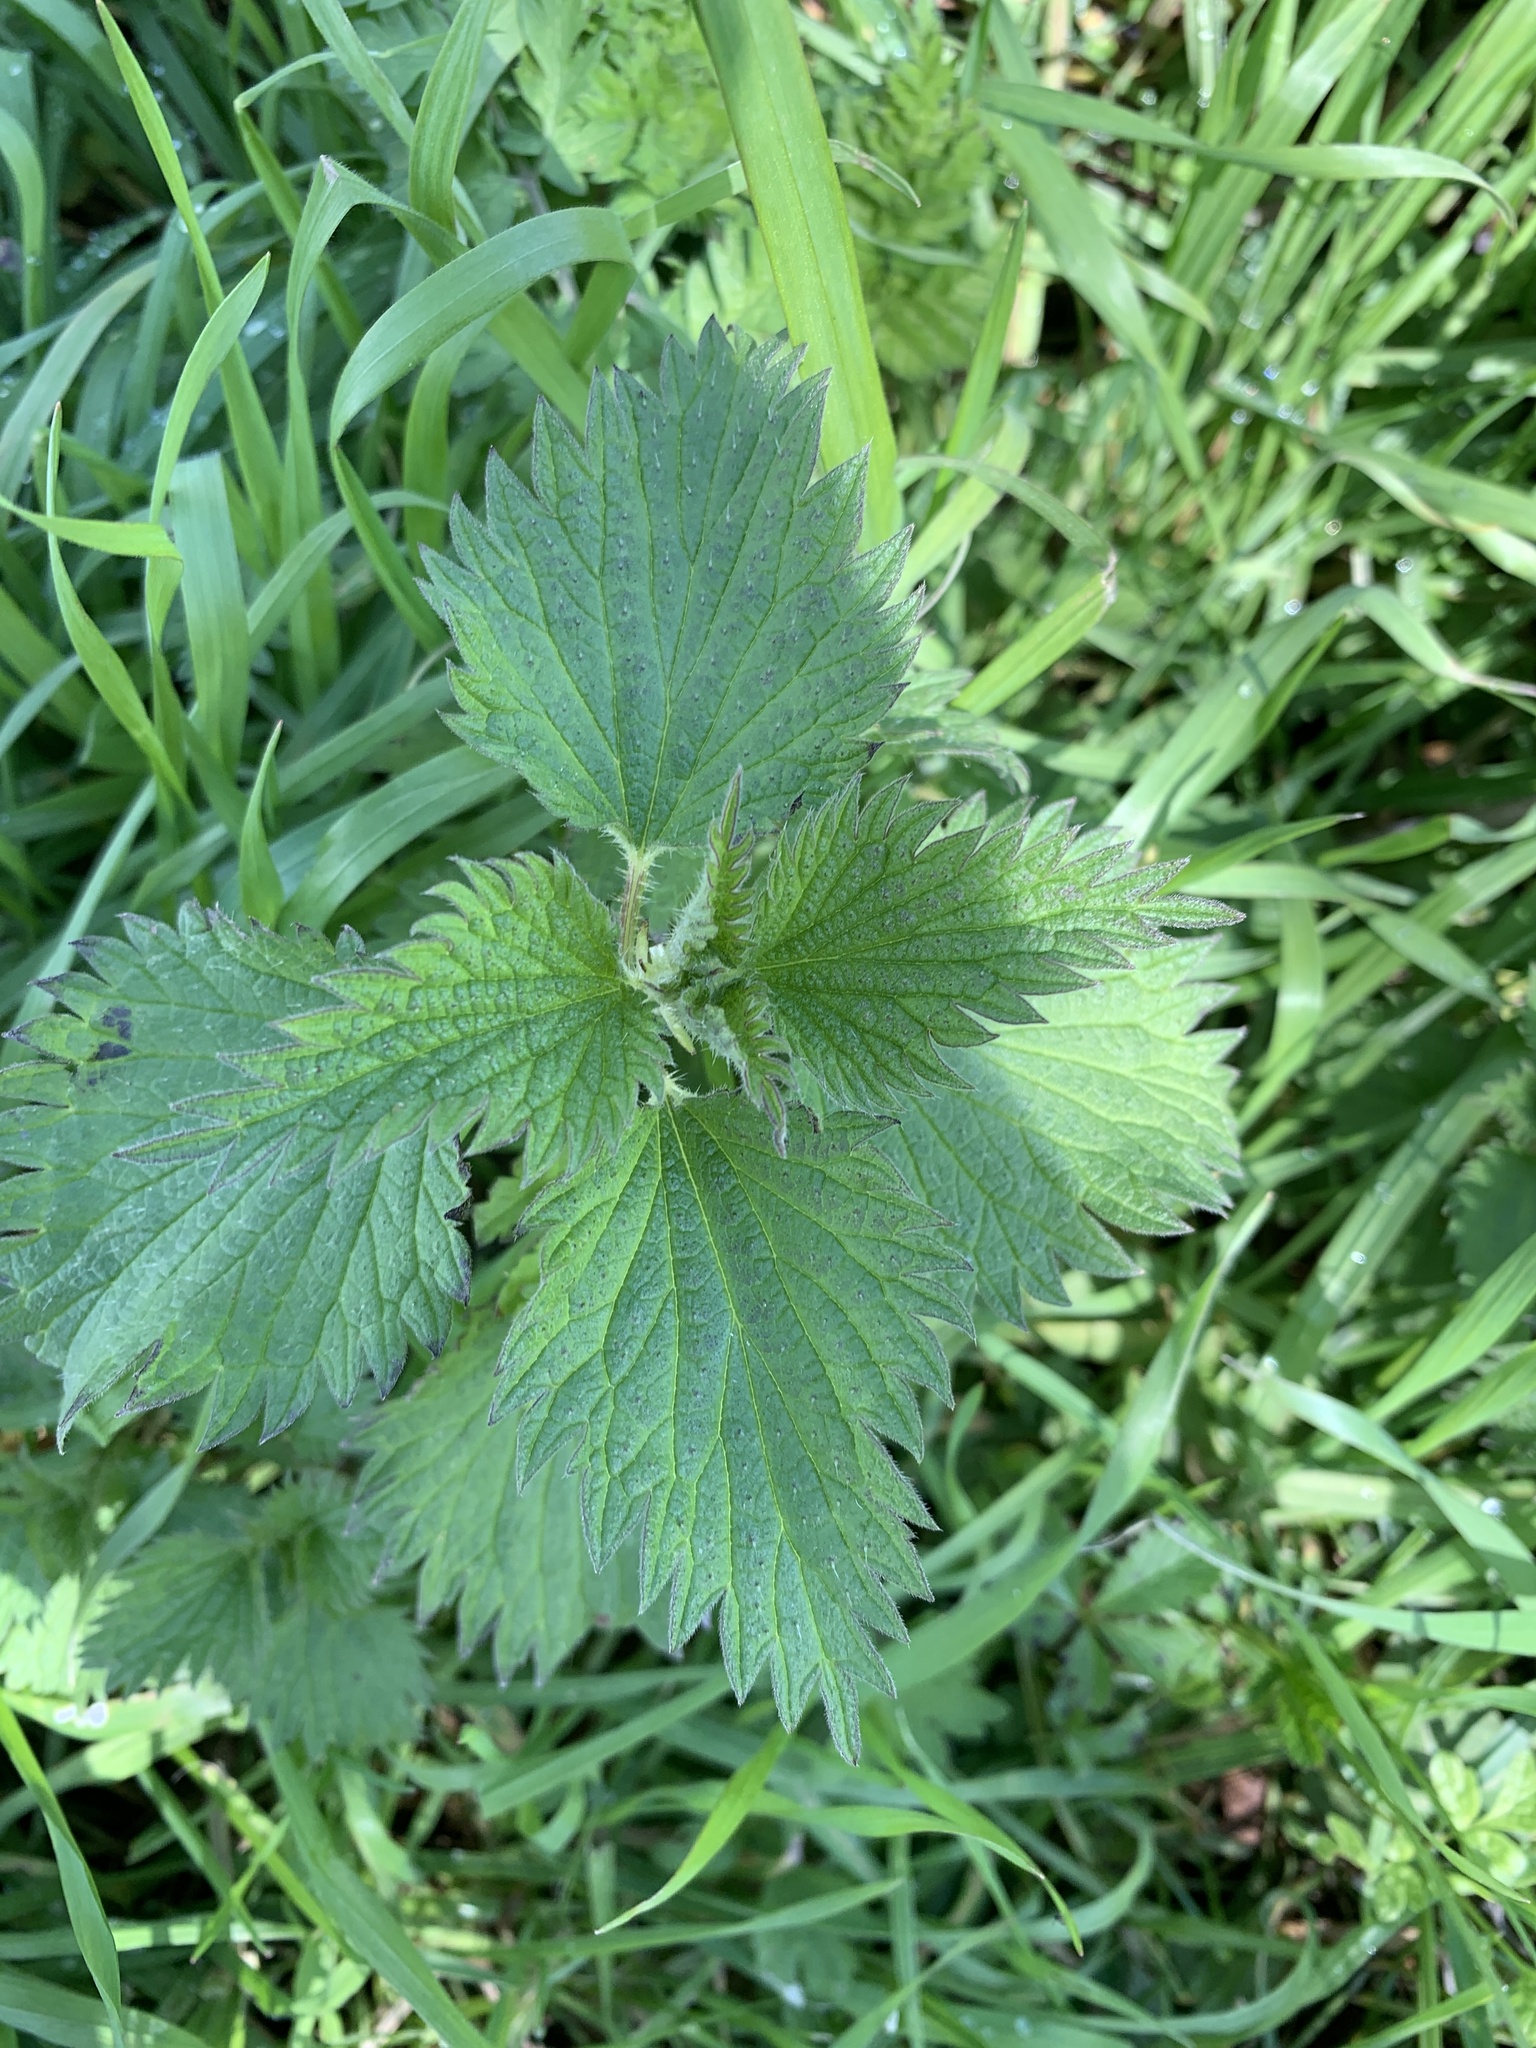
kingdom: Plantae
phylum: Tracheophyta
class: Magnoliopsida
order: Rosales
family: Urticaceae
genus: Urtica
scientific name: Urtica dioica
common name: Common nettle
